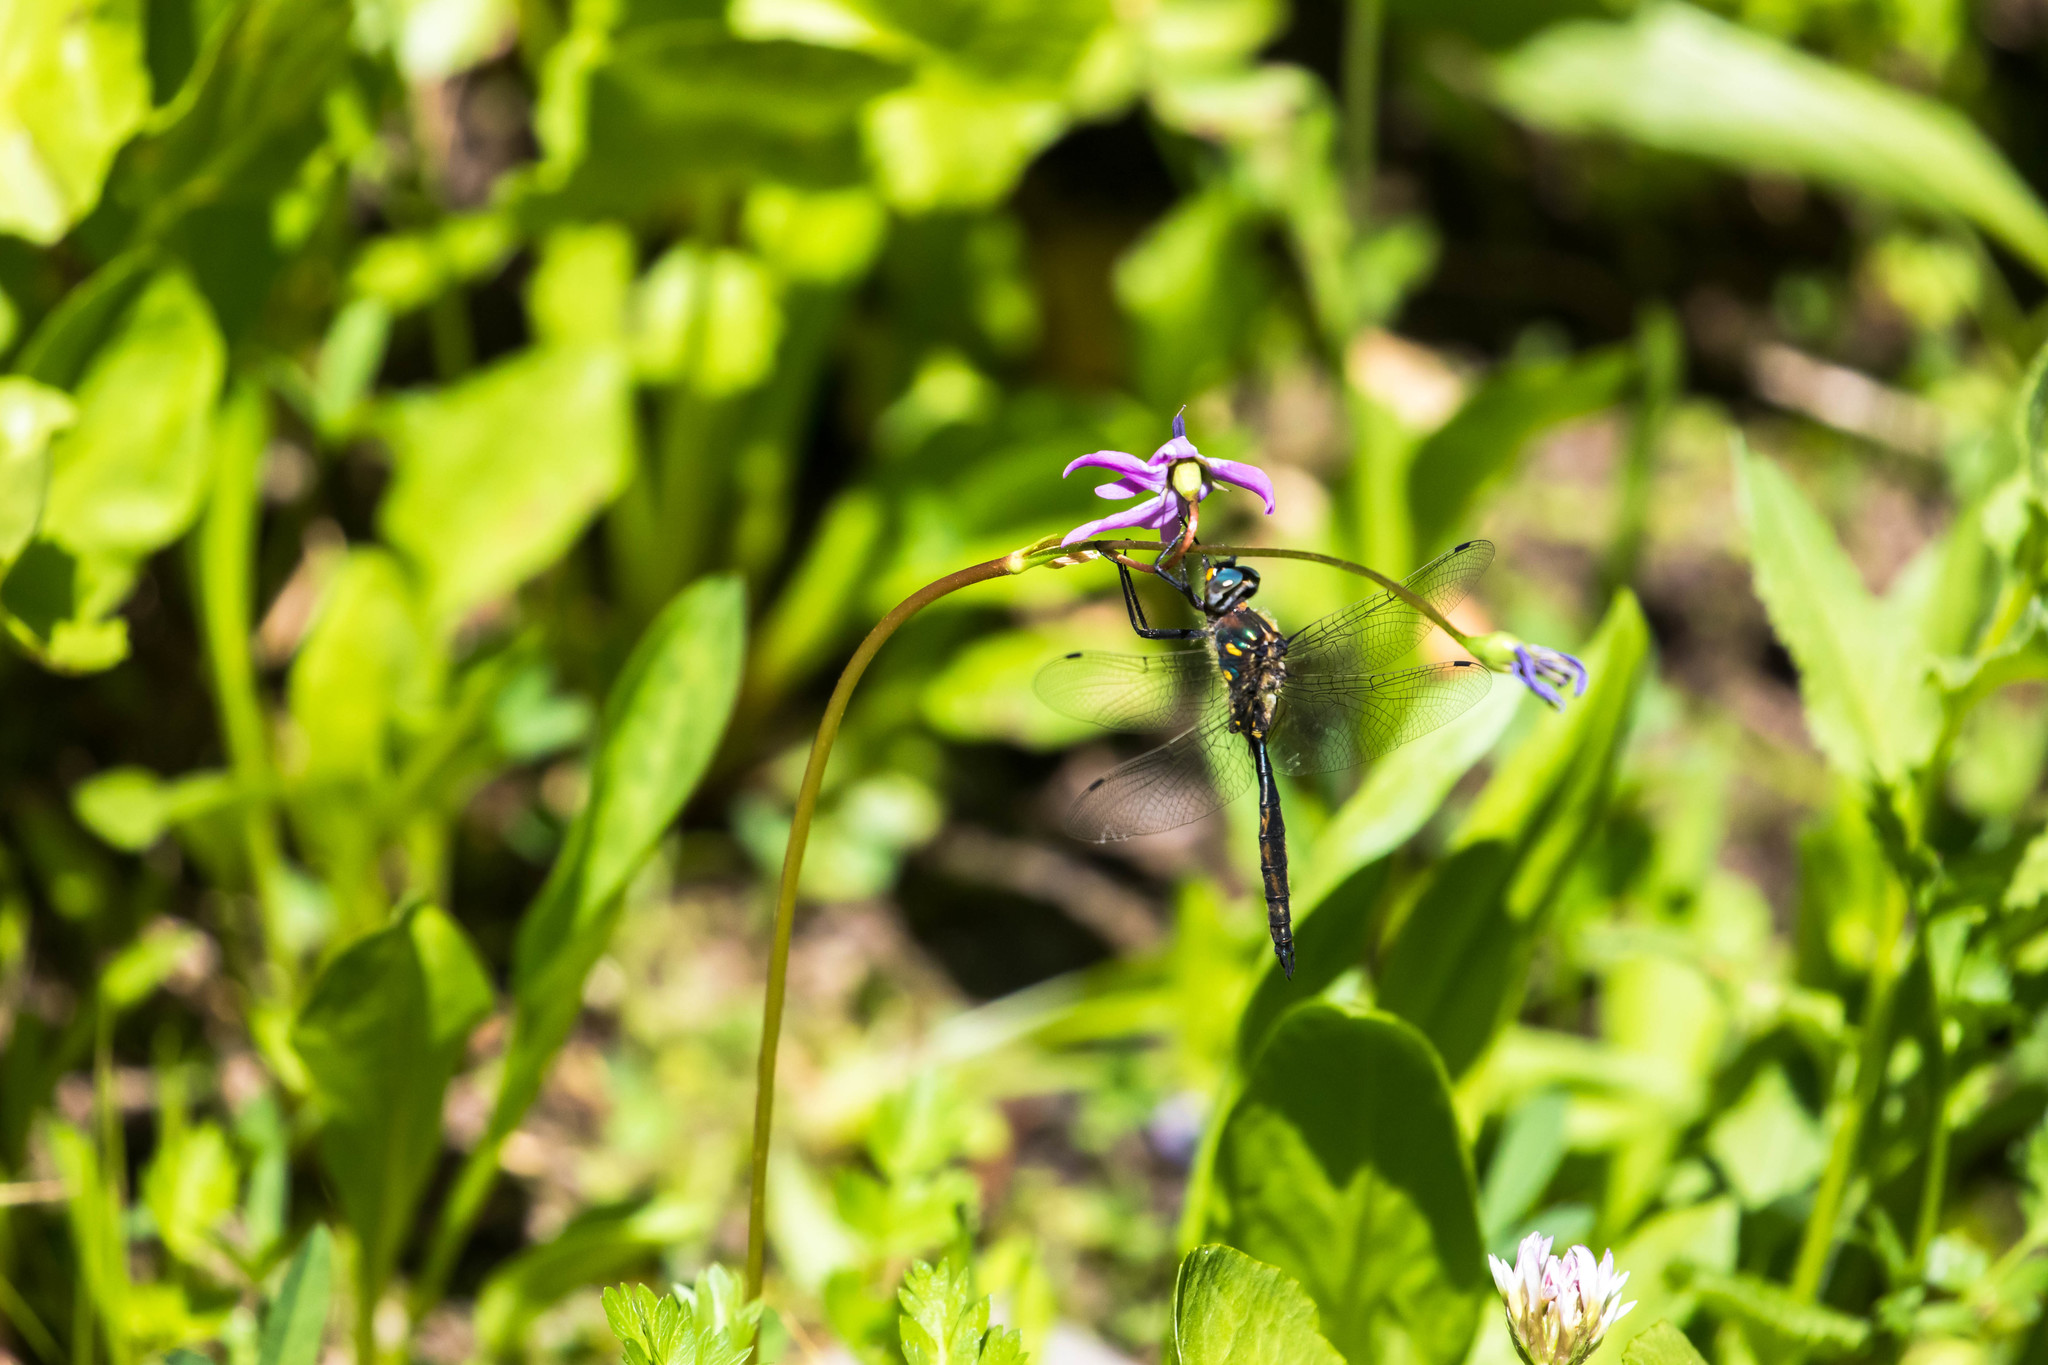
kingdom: Animalia
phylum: Arthropoda
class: Insecta
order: Odonata
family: Corduliidae
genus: Somatochlora
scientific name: Somatochlora minor
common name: Ocellated emerald
